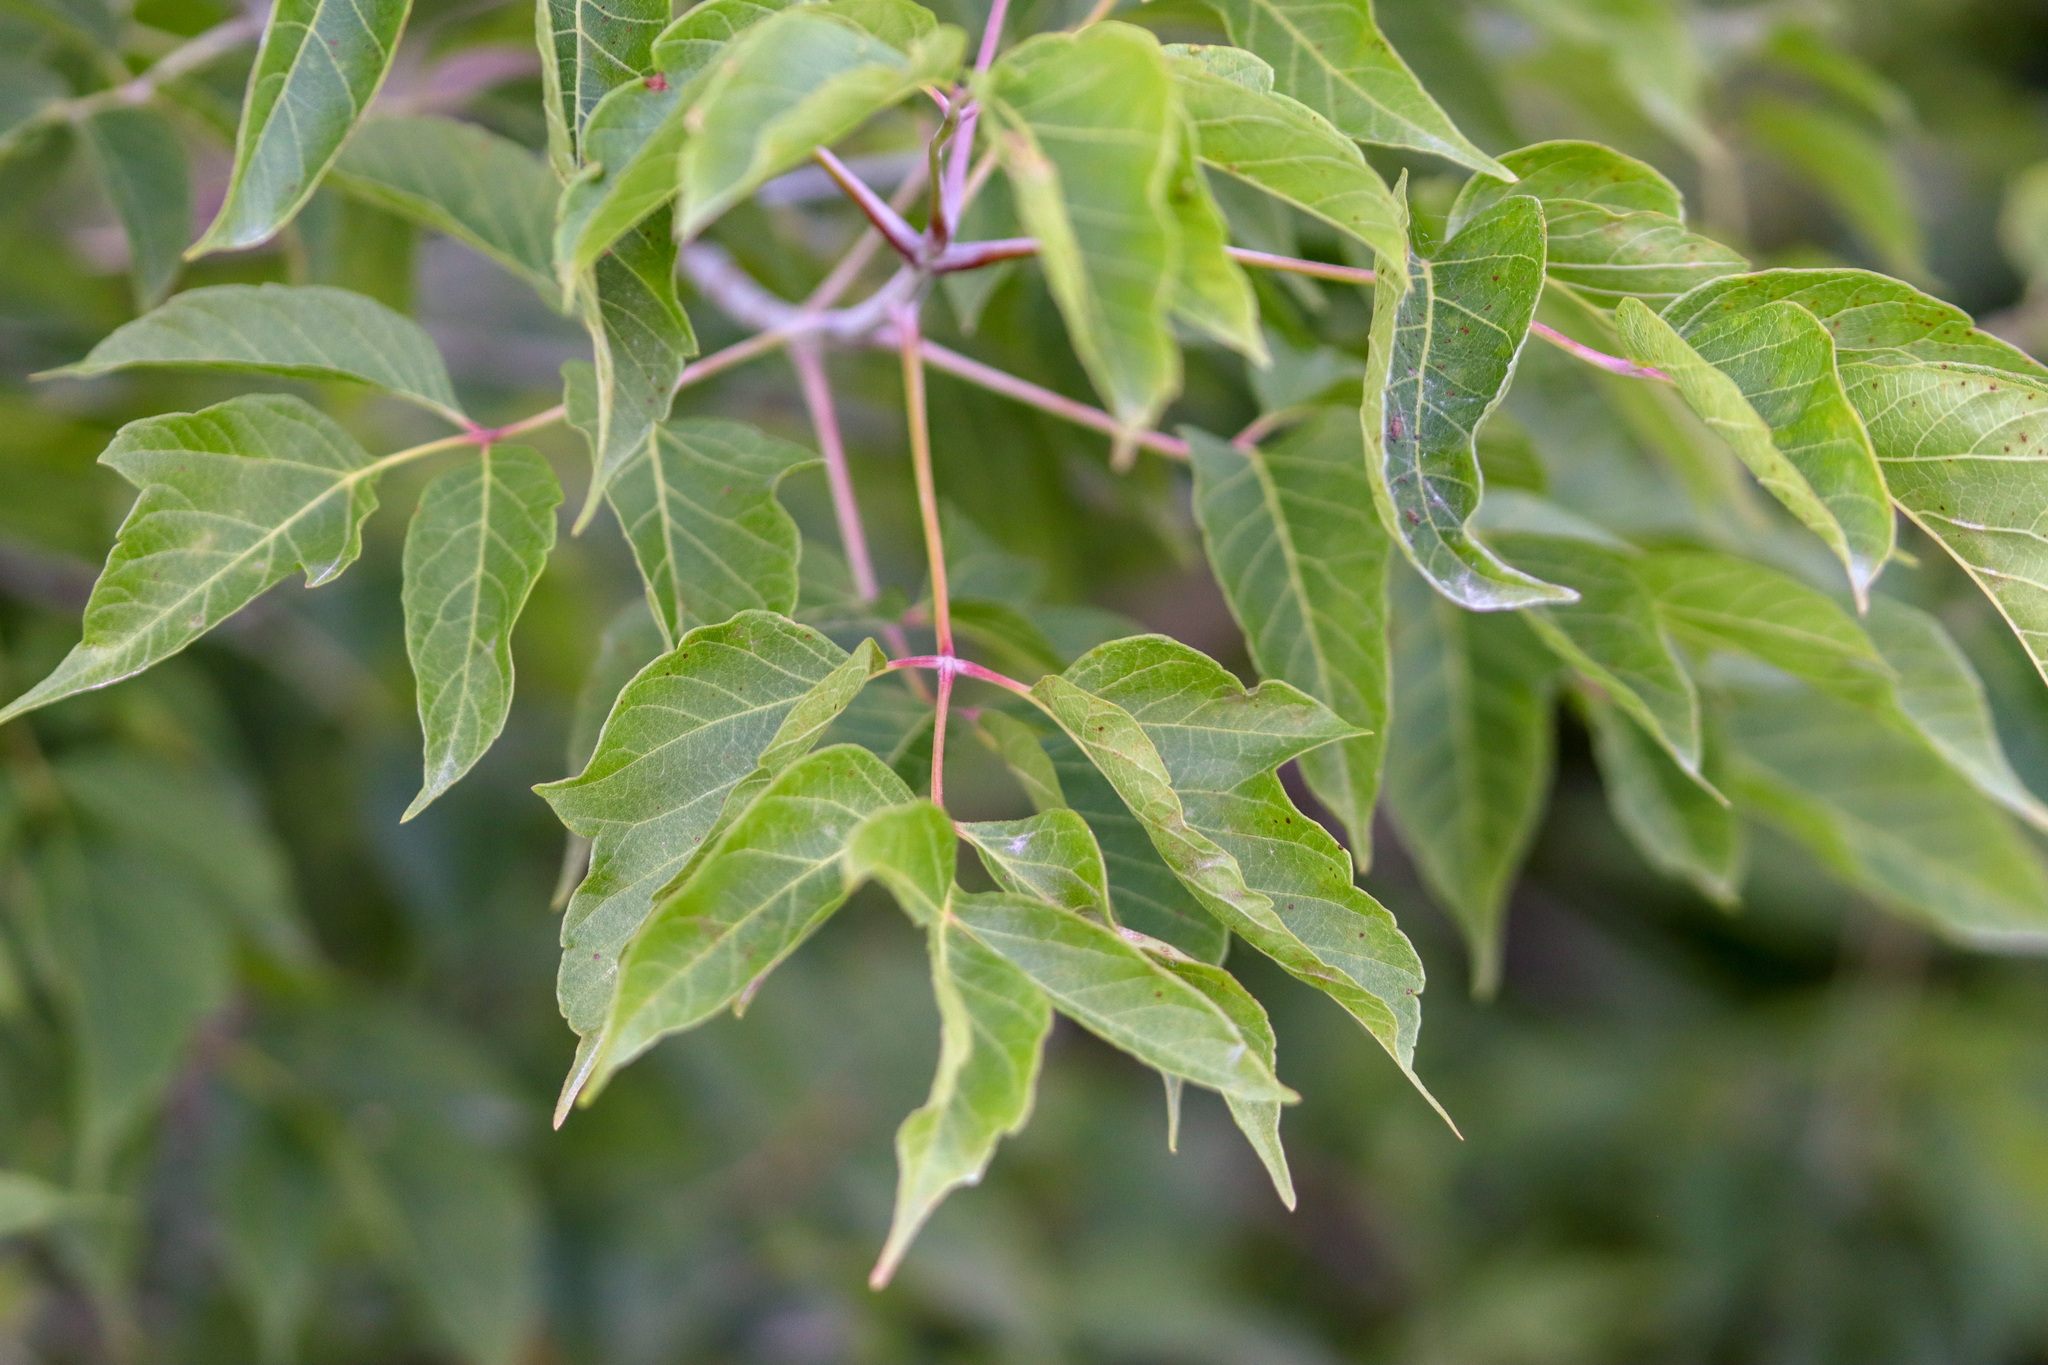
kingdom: Plantae
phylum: Tracheophyta
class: Magnoliopsida
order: Sapindales
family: Sapindaceae
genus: Acer
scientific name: Acer negundo
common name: Ashleaf maple
